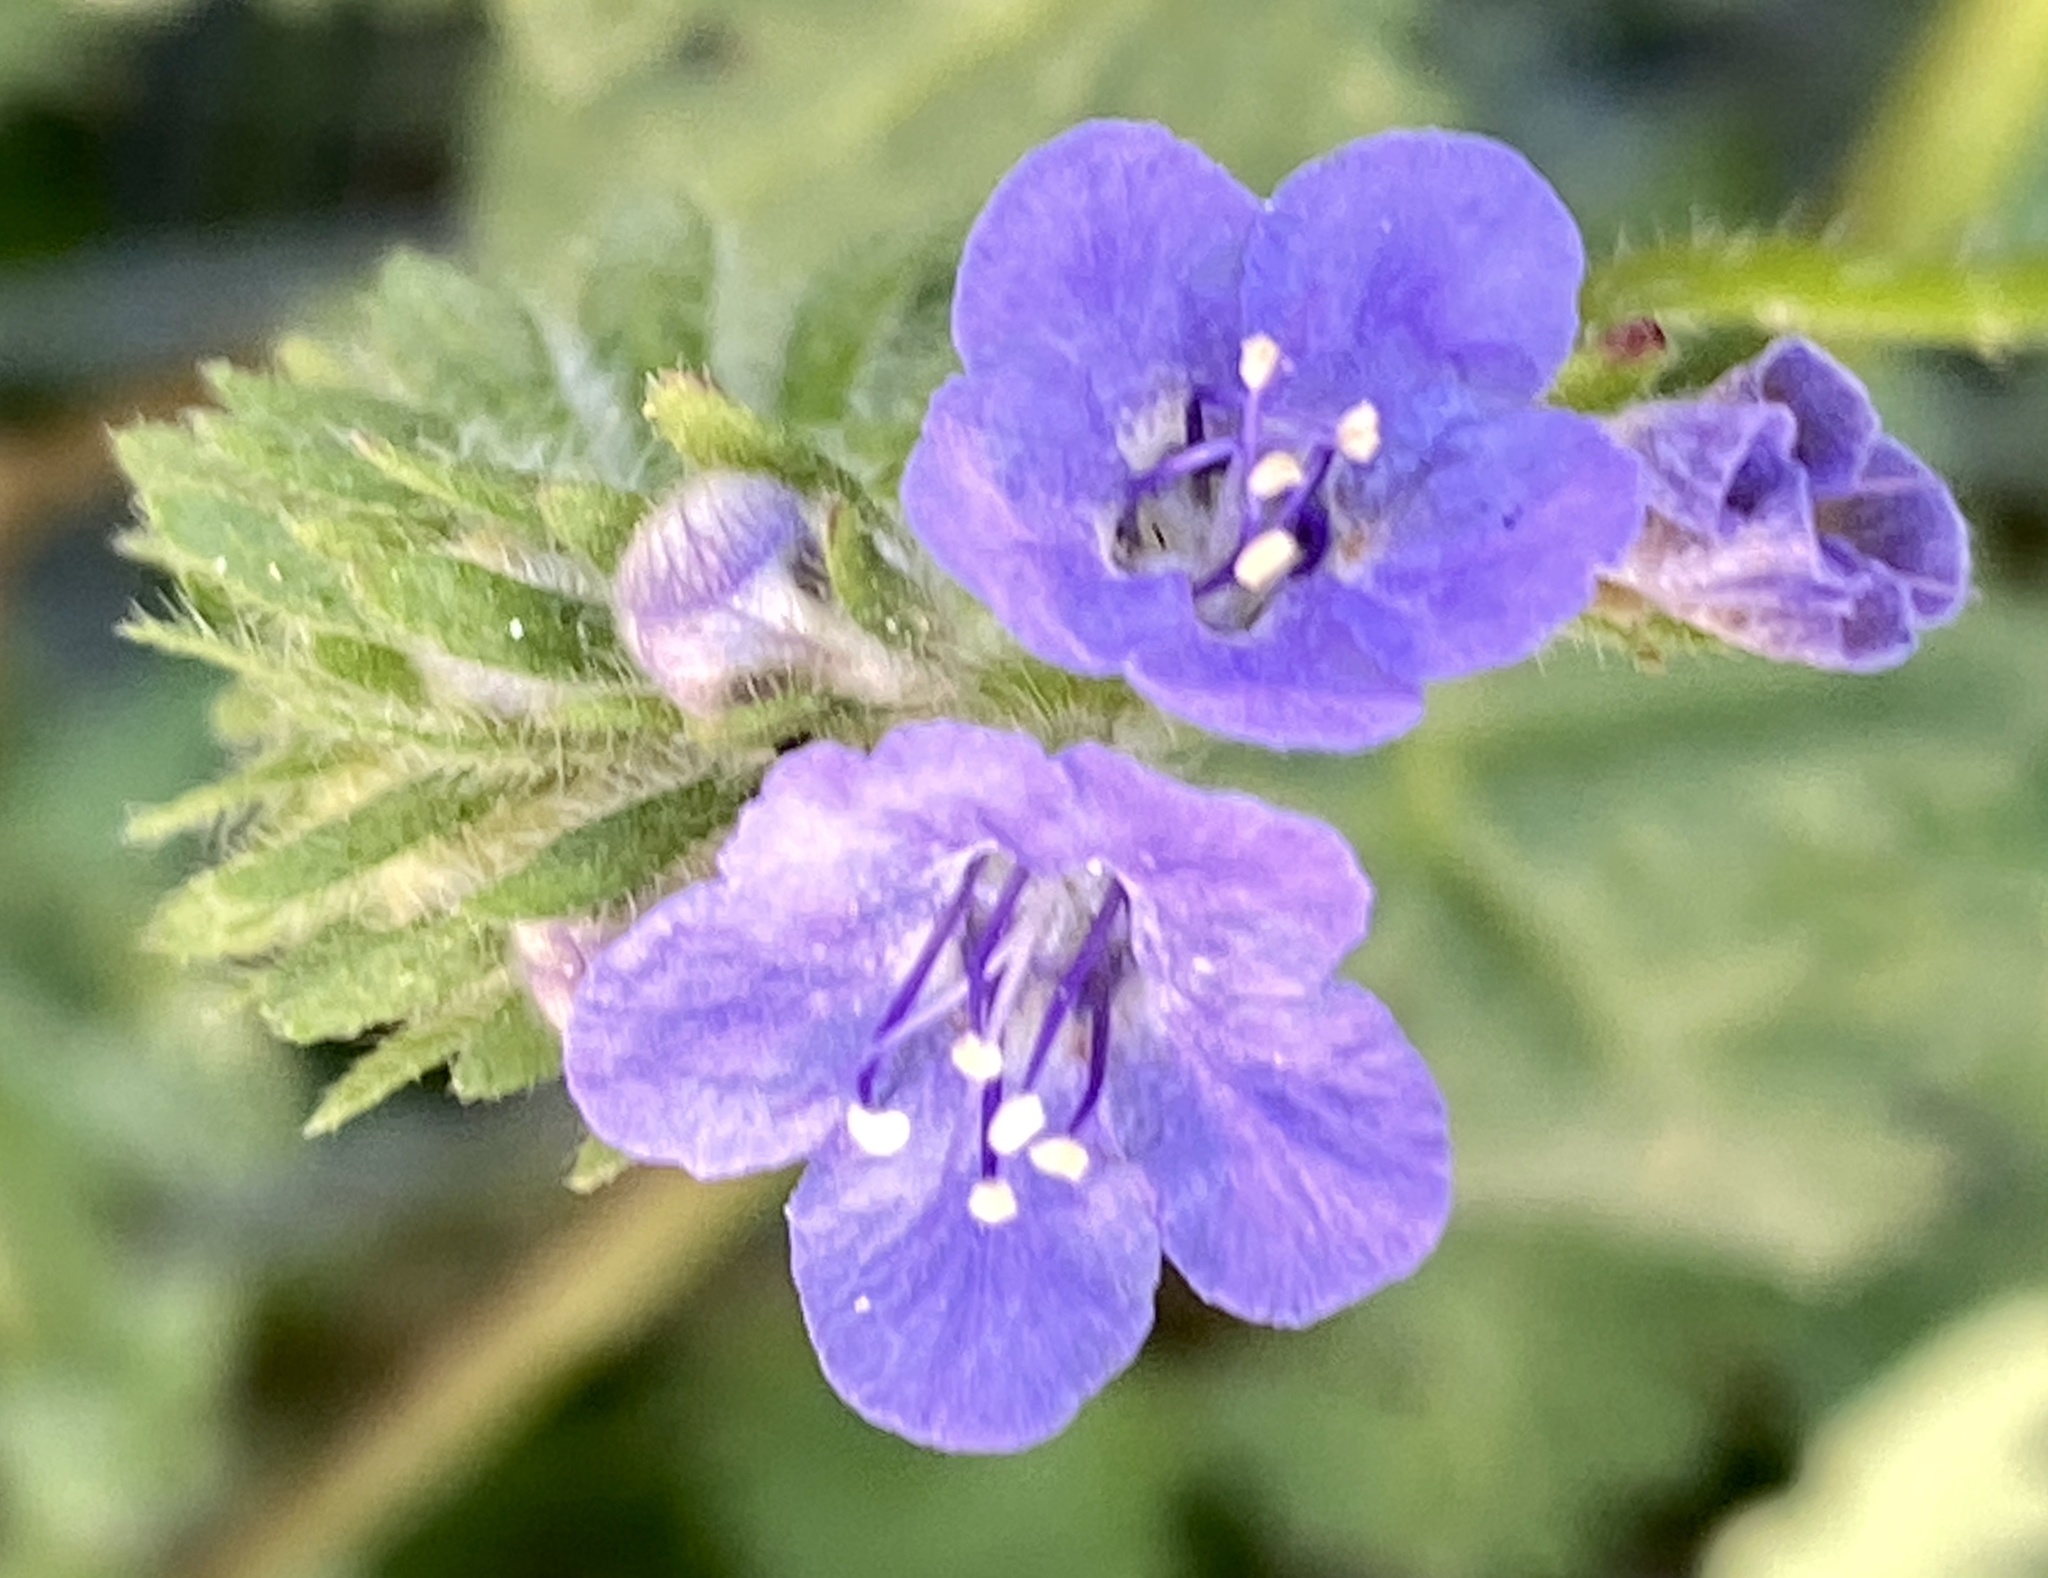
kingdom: Plantae
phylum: Tracheophyta
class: Magnoliopsida
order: Boraginales
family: Hydrophyllaceae
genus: Phacelia
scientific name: Phacelia distans
